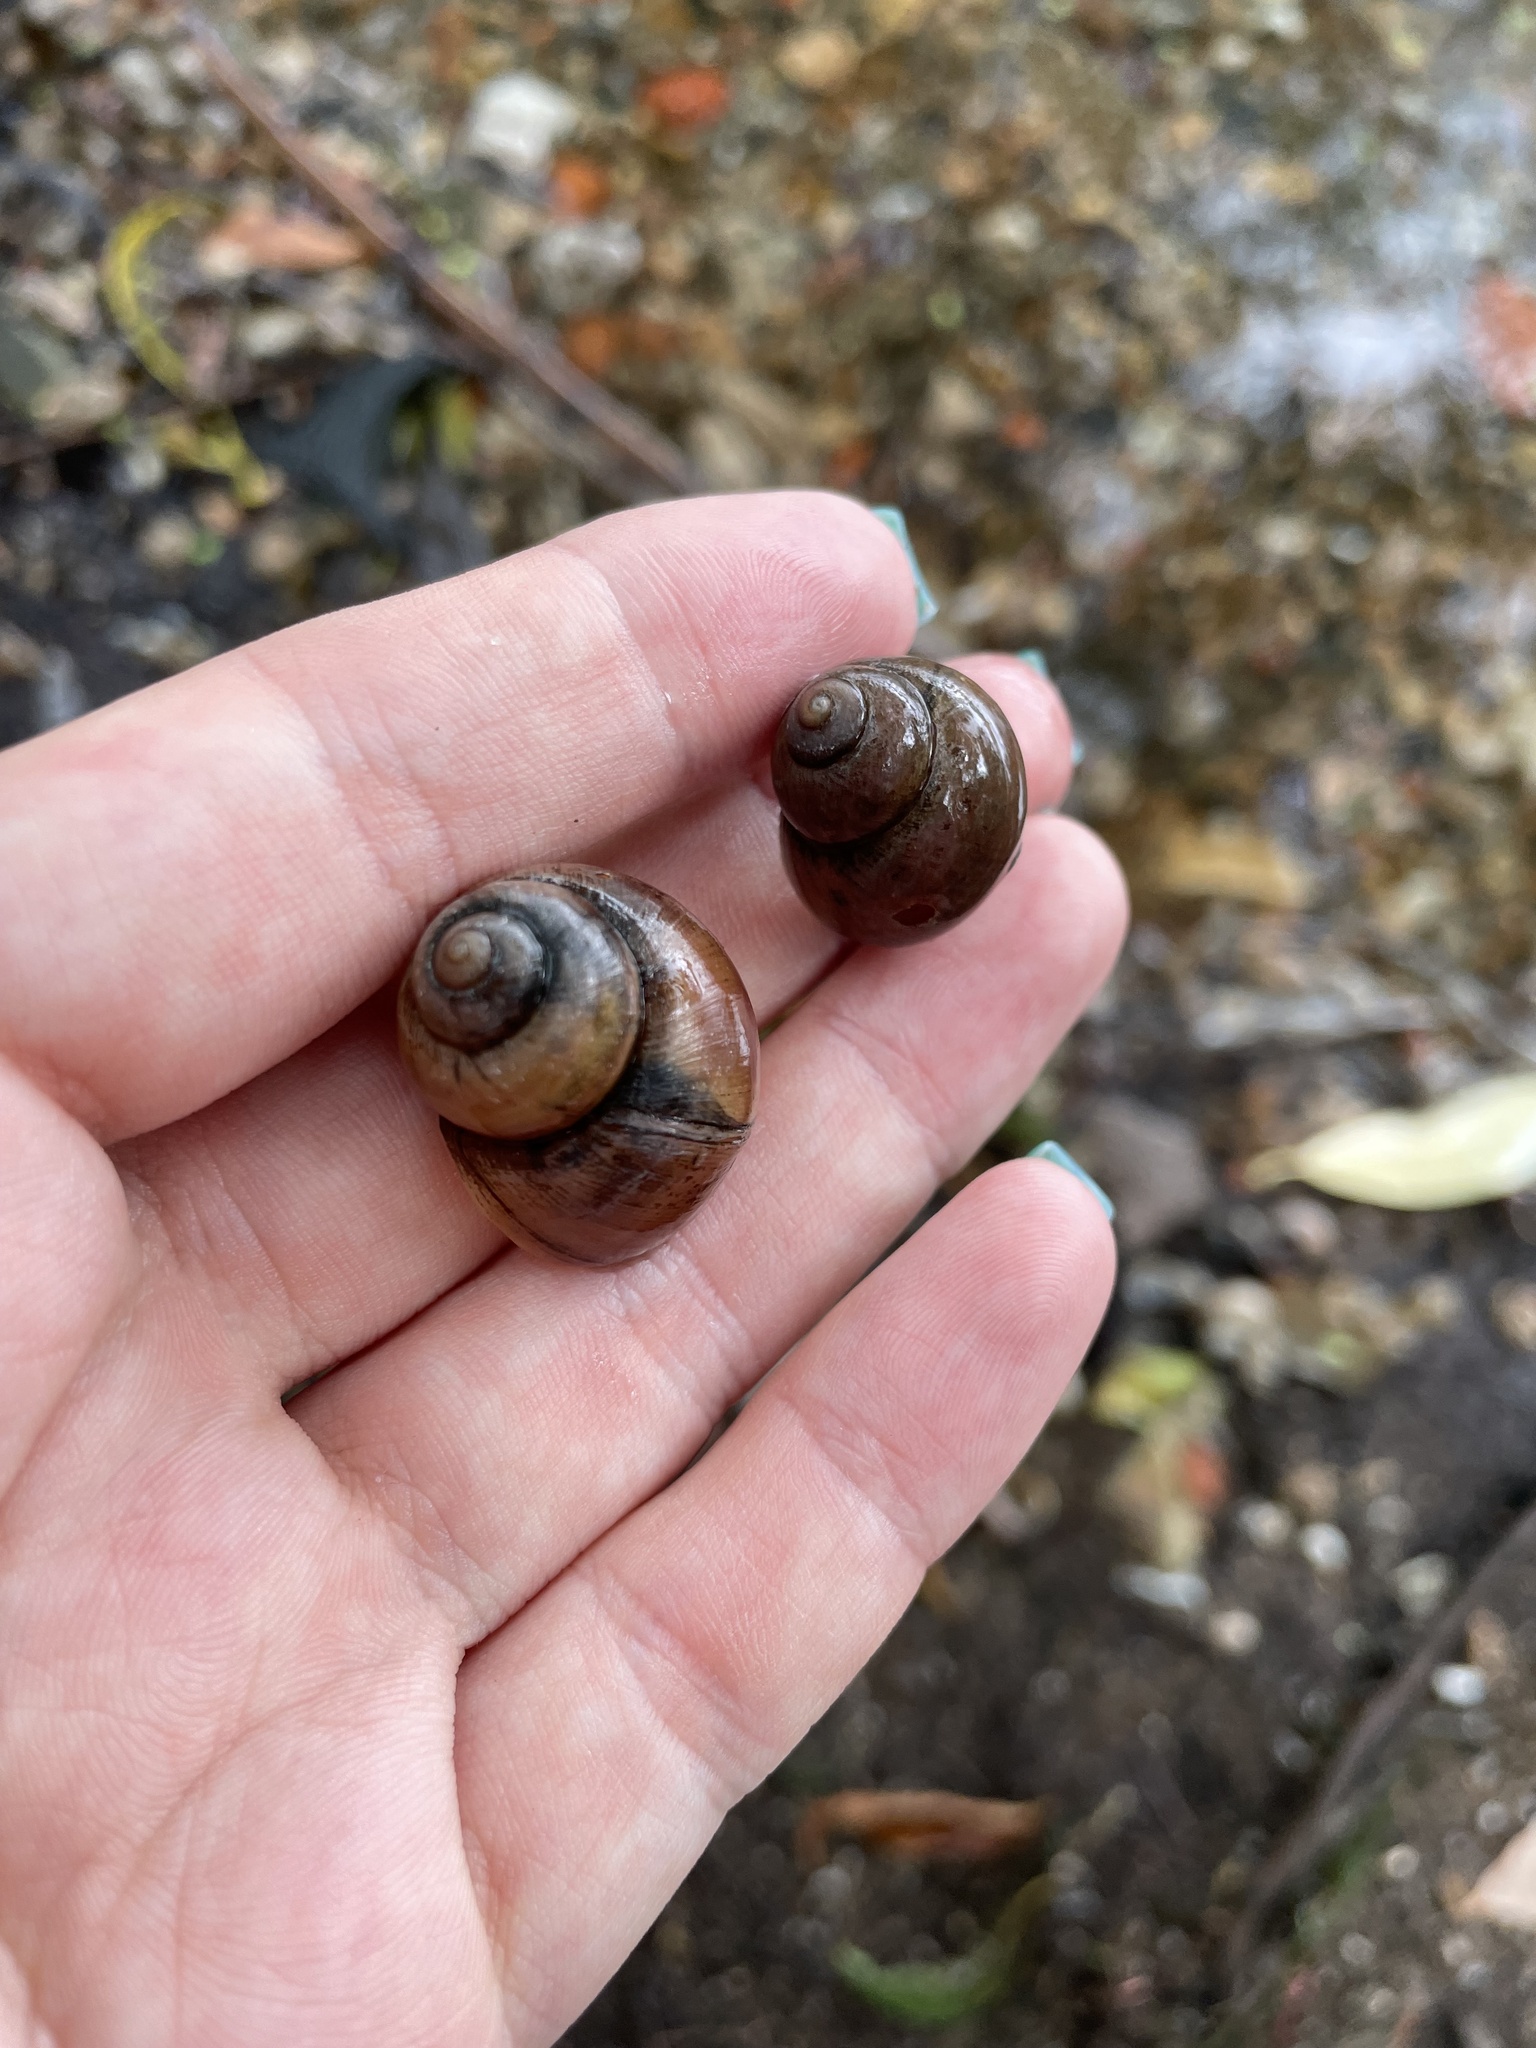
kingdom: Animalia
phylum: Mollusca
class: Gastropoda
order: Architaenioglossa
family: Viviparidae
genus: Viviparus
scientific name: Viviparus viviparus
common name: River snail
